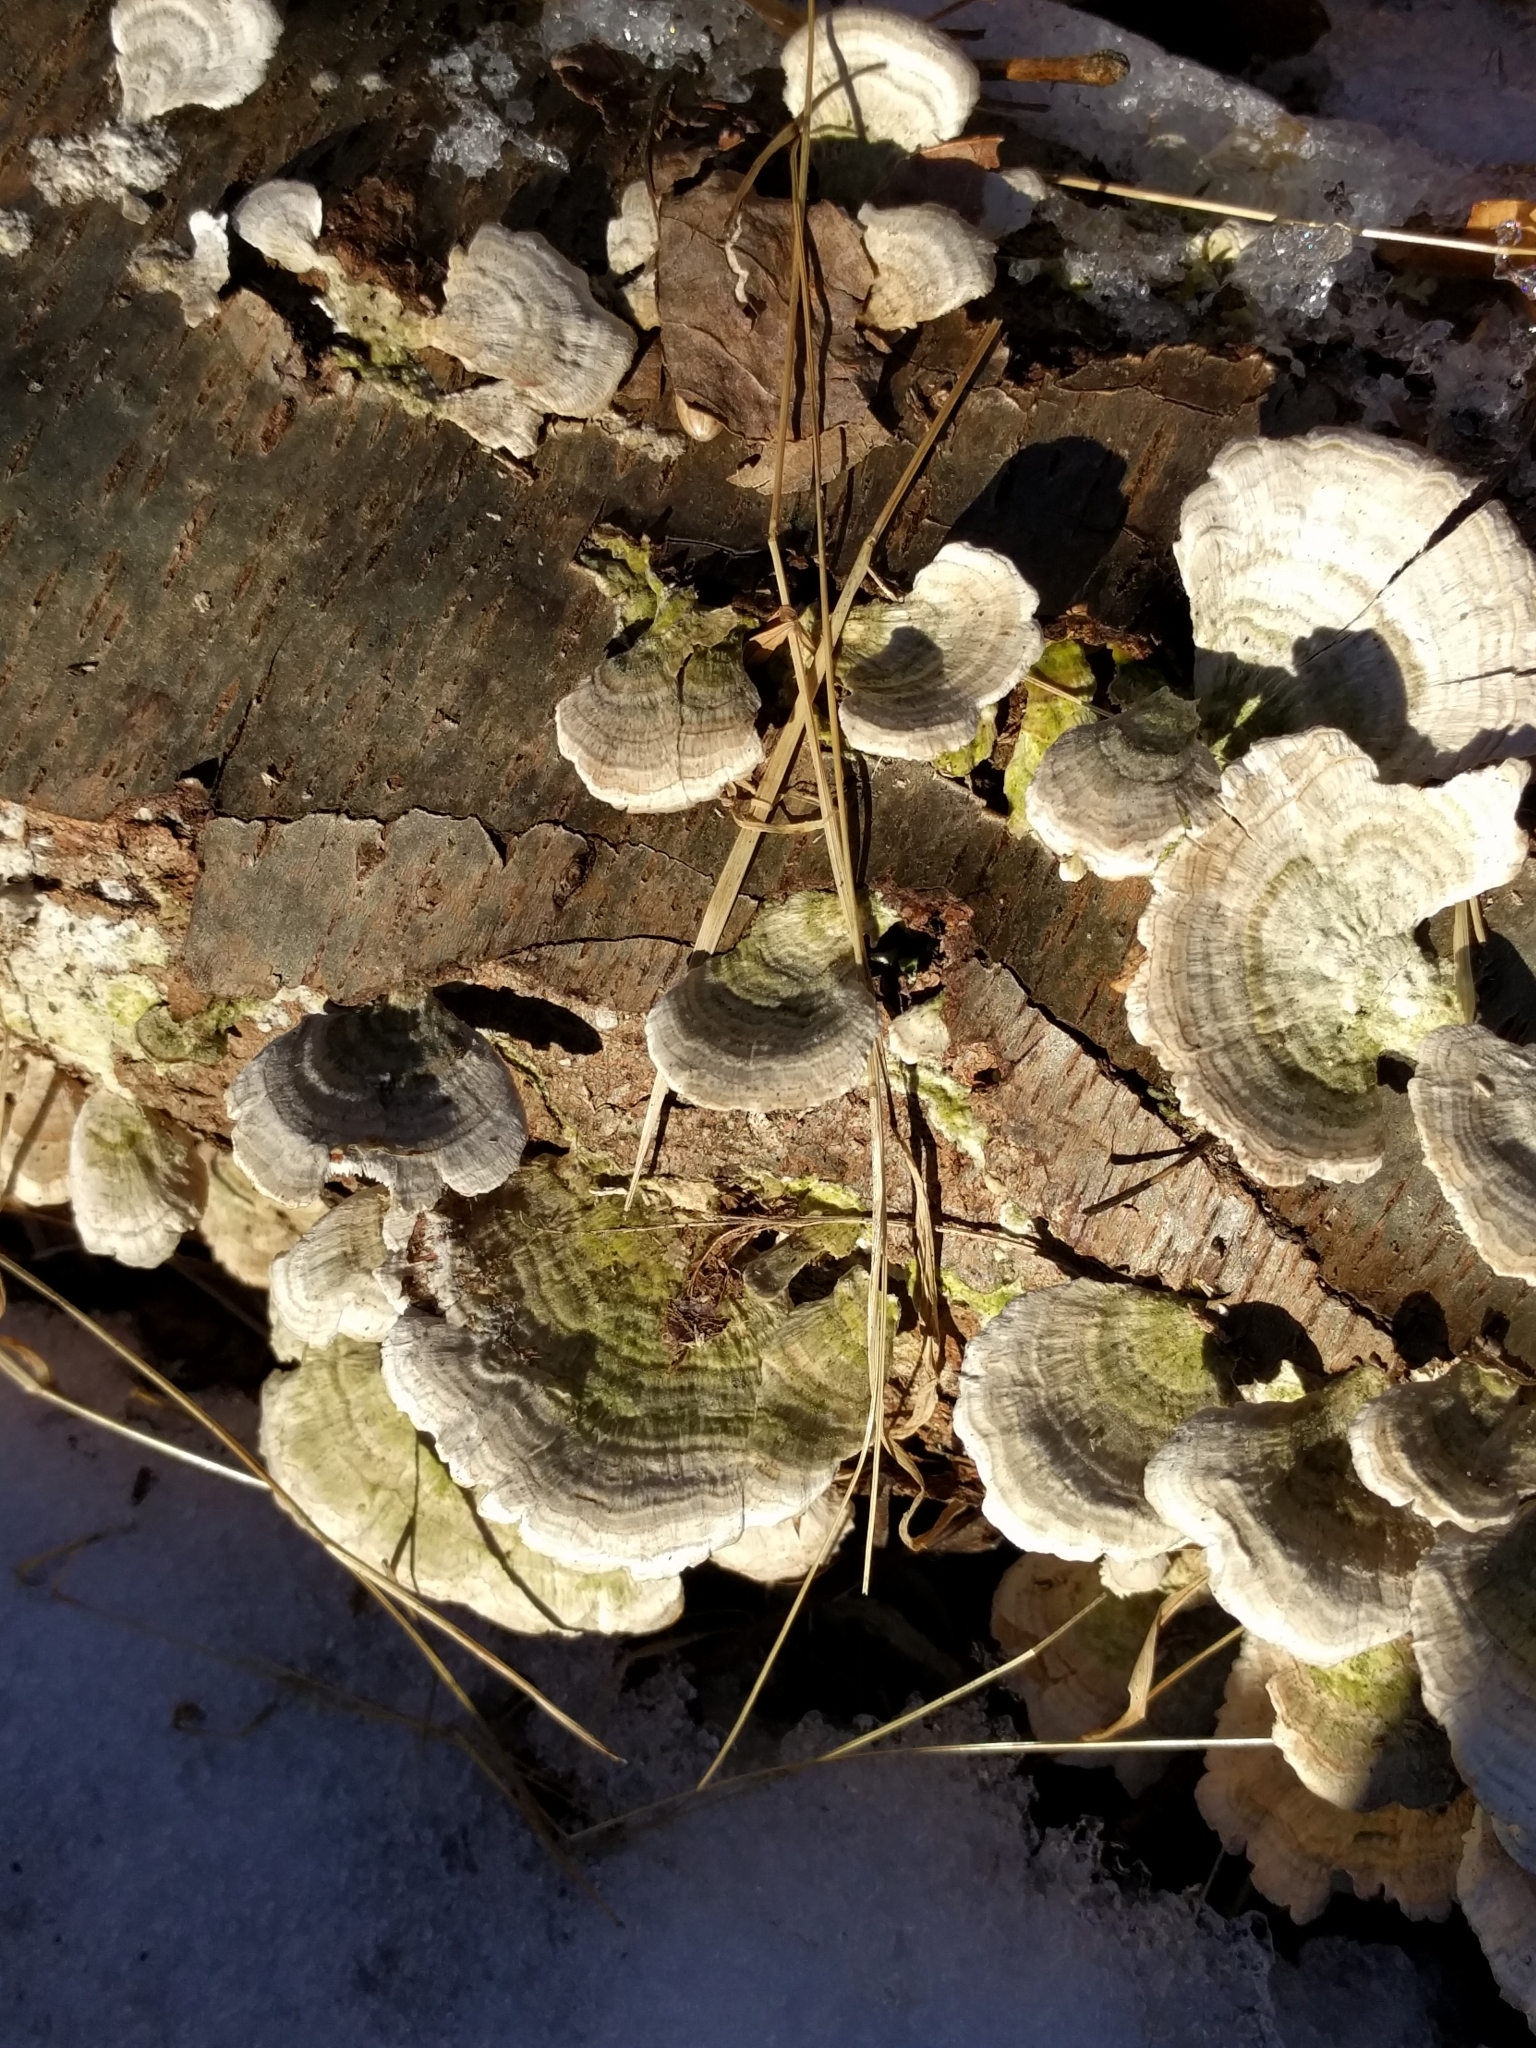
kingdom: Fungi
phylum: Basidiomycota
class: Agaricomycetes
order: Hymenochaetales
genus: Trichaptum
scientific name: Trichaptum biforme
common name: Violet-toothed polypore
